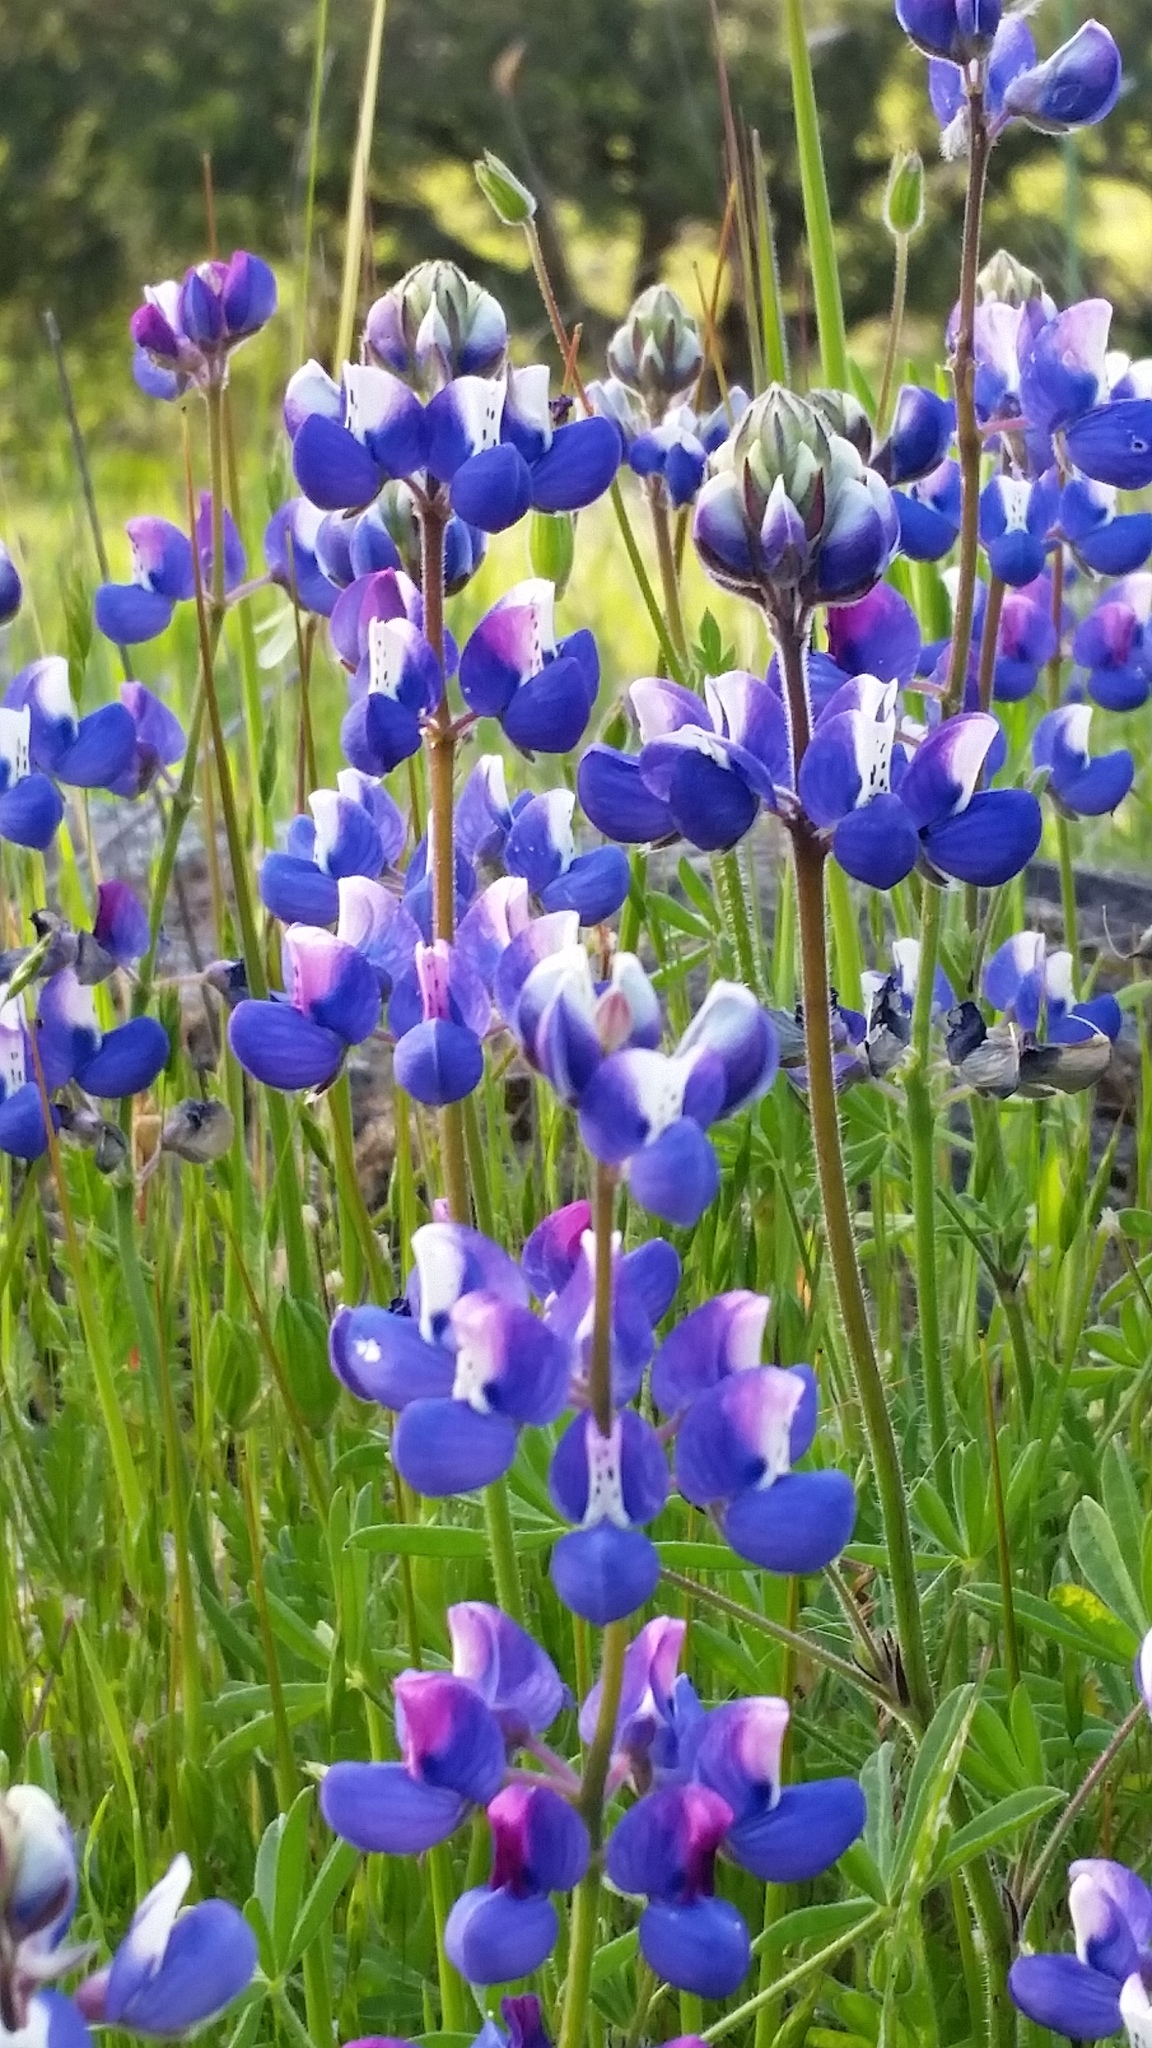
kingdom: Plantae
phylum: Tracheophyta
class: Magnoliopsida
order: Fabales
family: Fabaceae
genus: Lupinus
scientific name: Lupinus nanus
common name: Orean blue lupin
